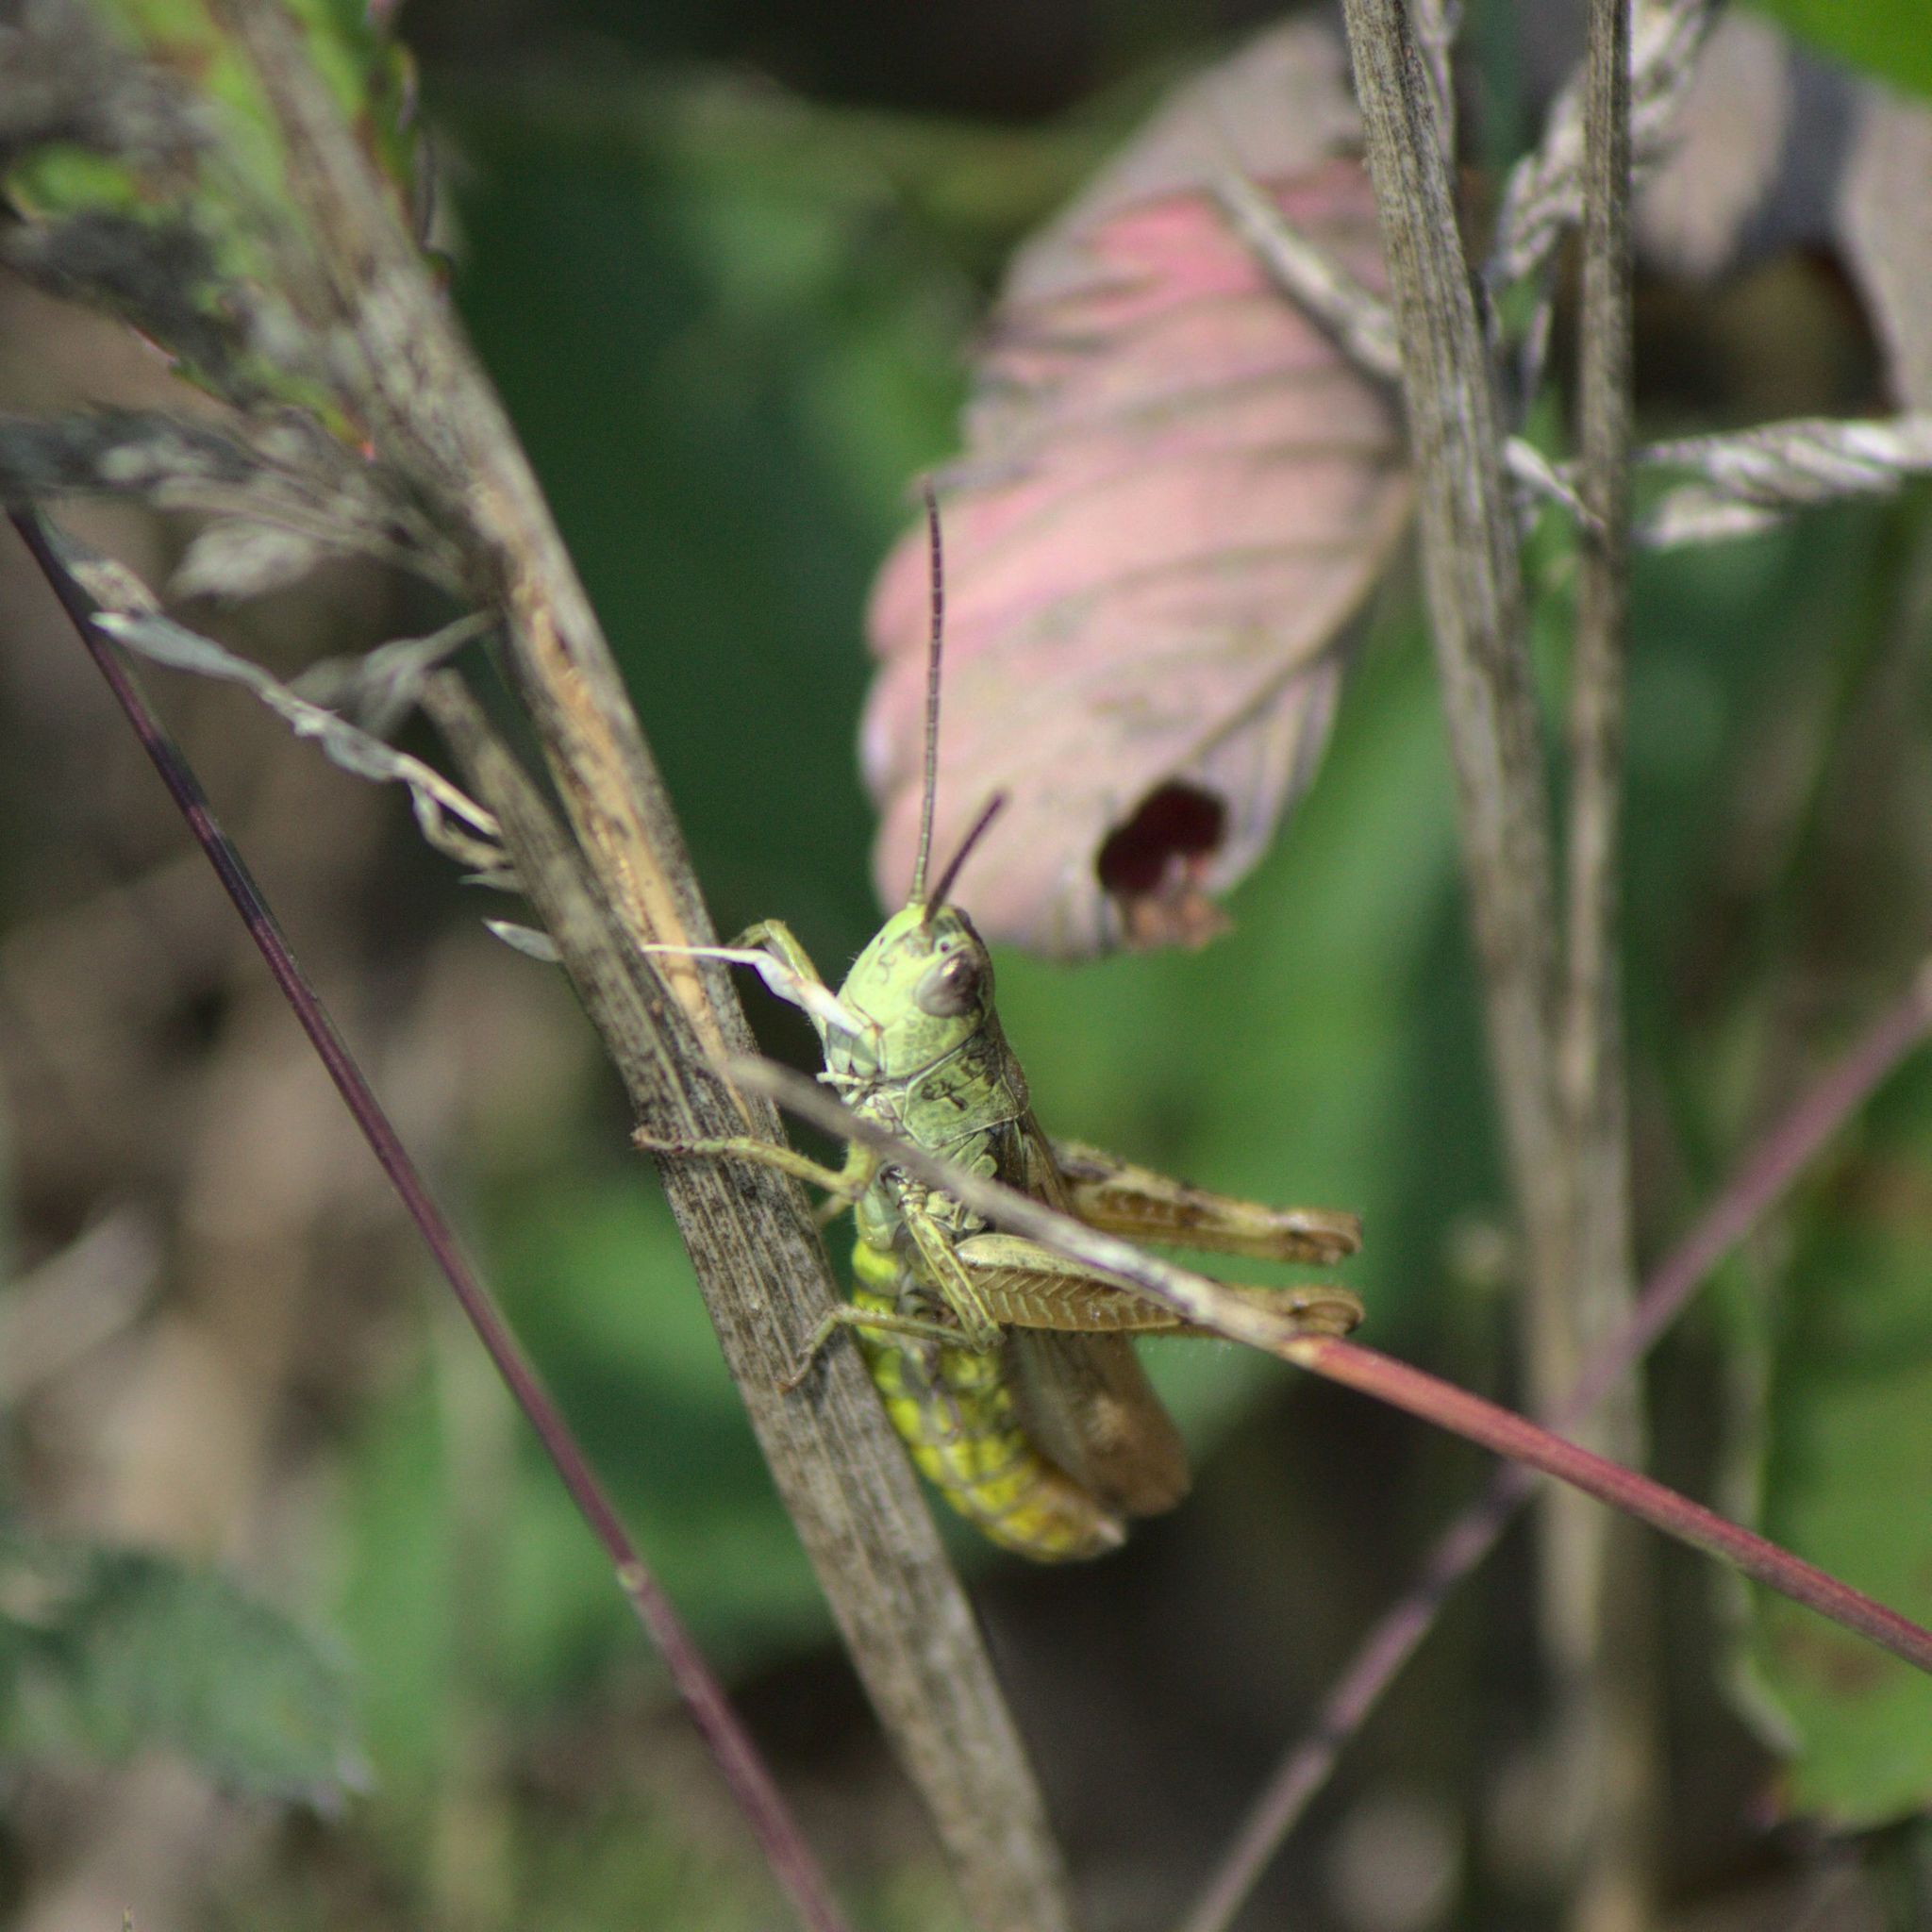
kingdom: Animalia
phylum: Arthropoda
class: Insecta
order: Orthoptera
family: Acrididae
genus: Chorthippus
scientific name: Chorthippus apricarius
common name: Upland field grasshopper
